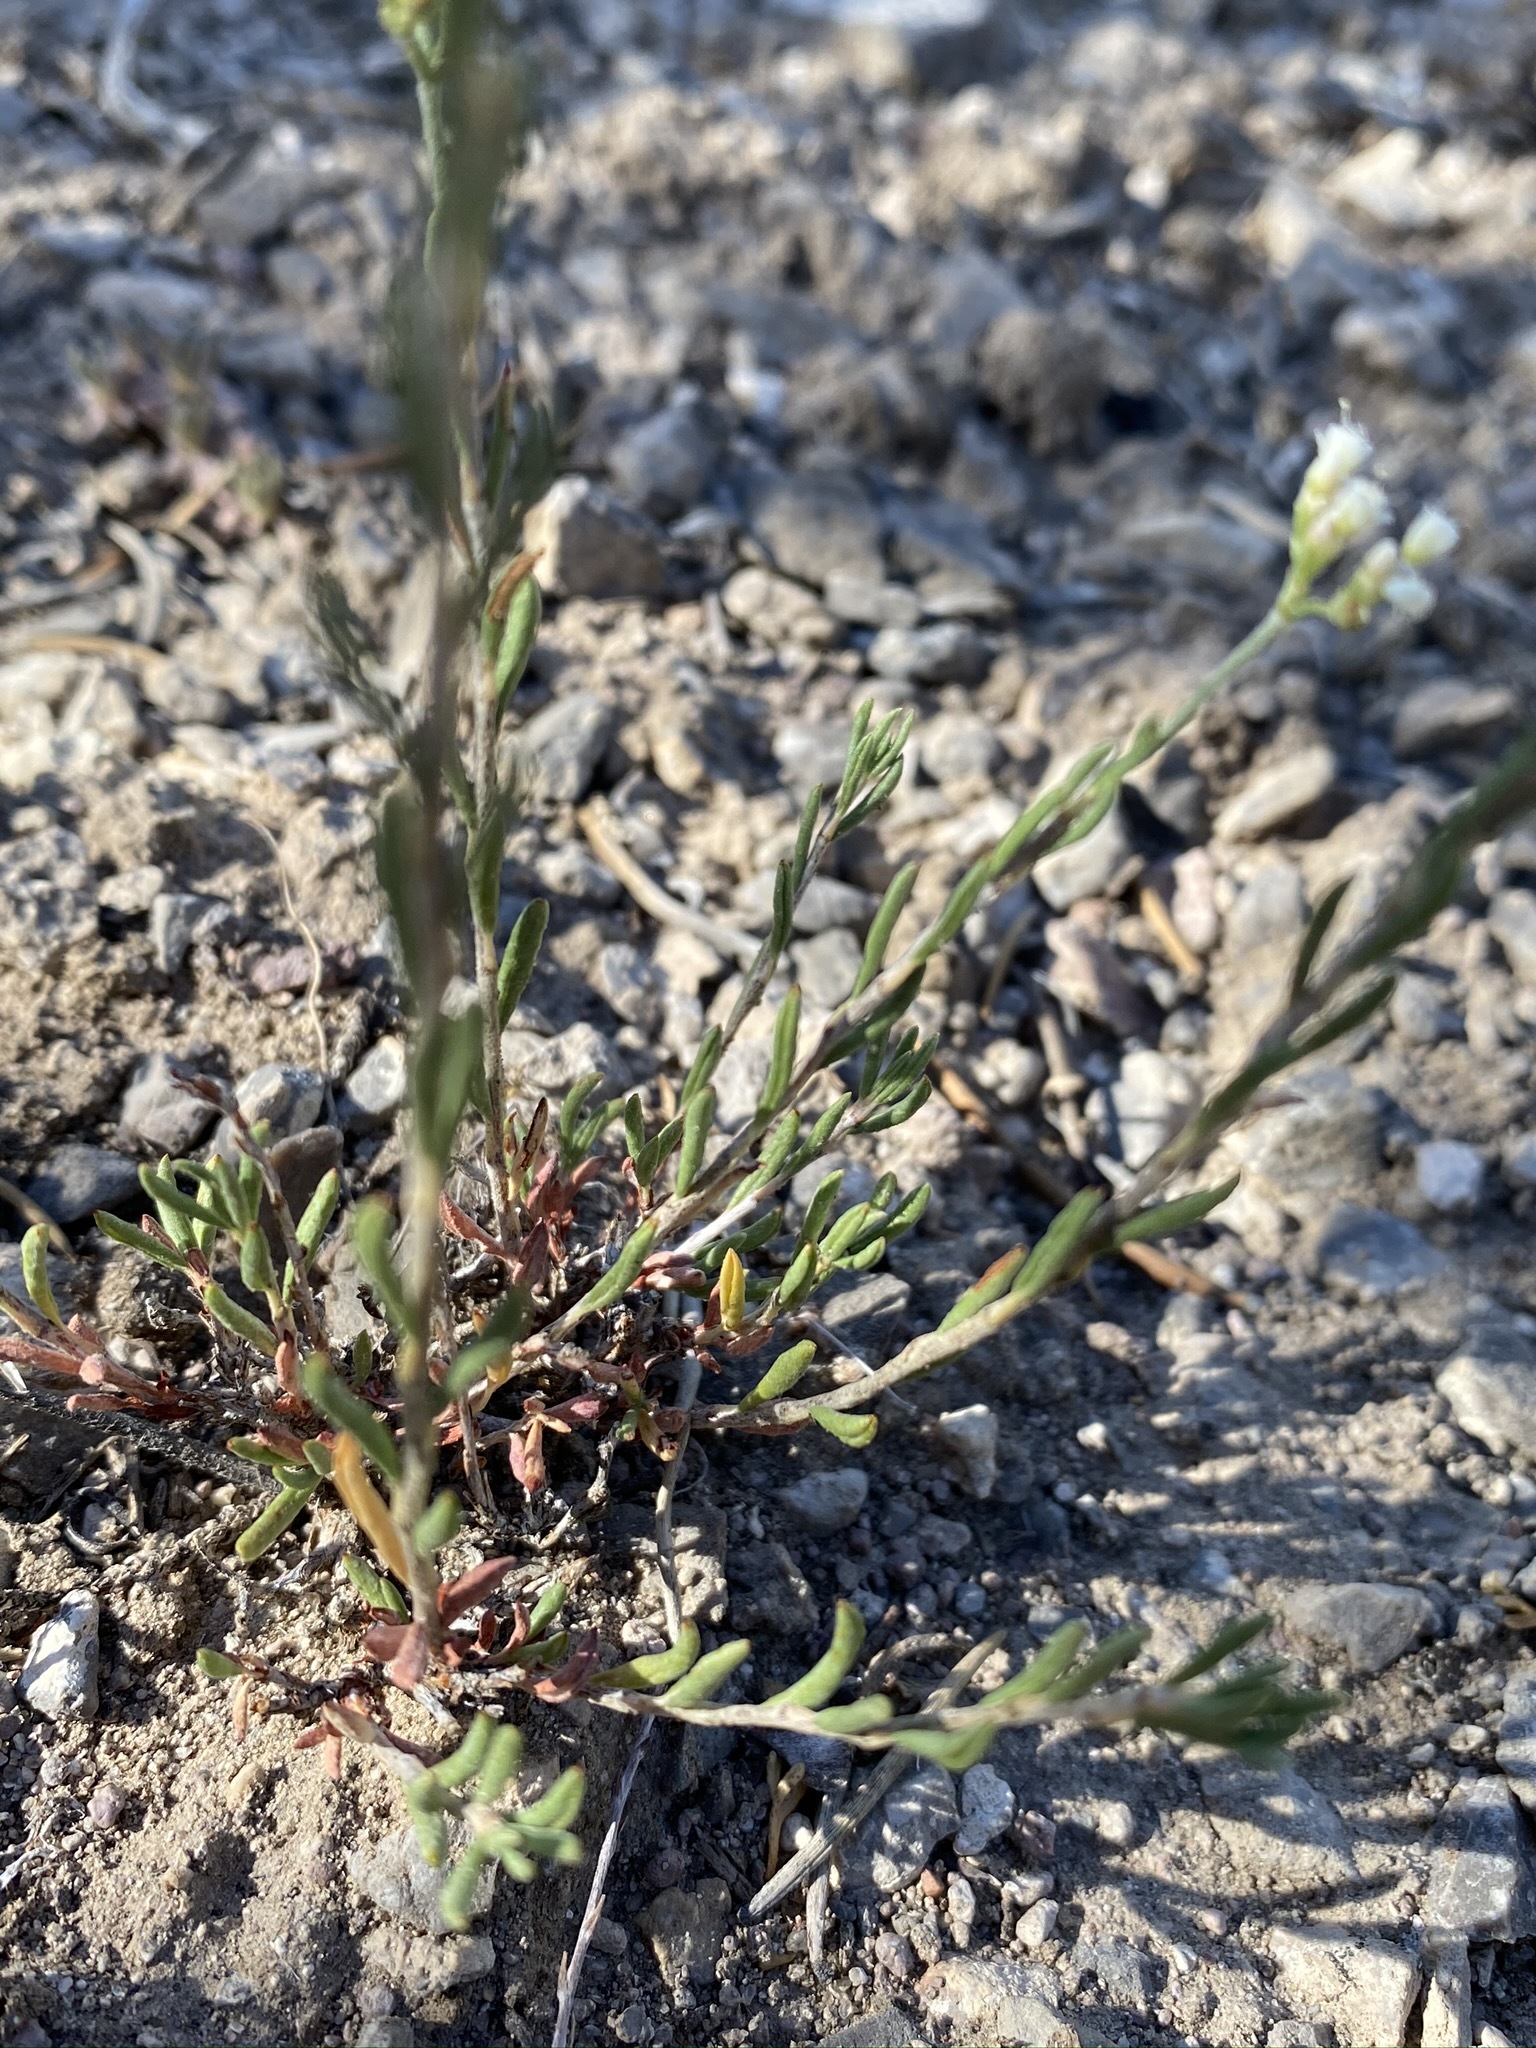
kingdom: Plantae
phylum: Tracheophyta
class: Magnoliopsida
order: Caryophyllales
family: Polygonaceae
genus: Eriogonum
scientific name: Eriogonum microtheca
